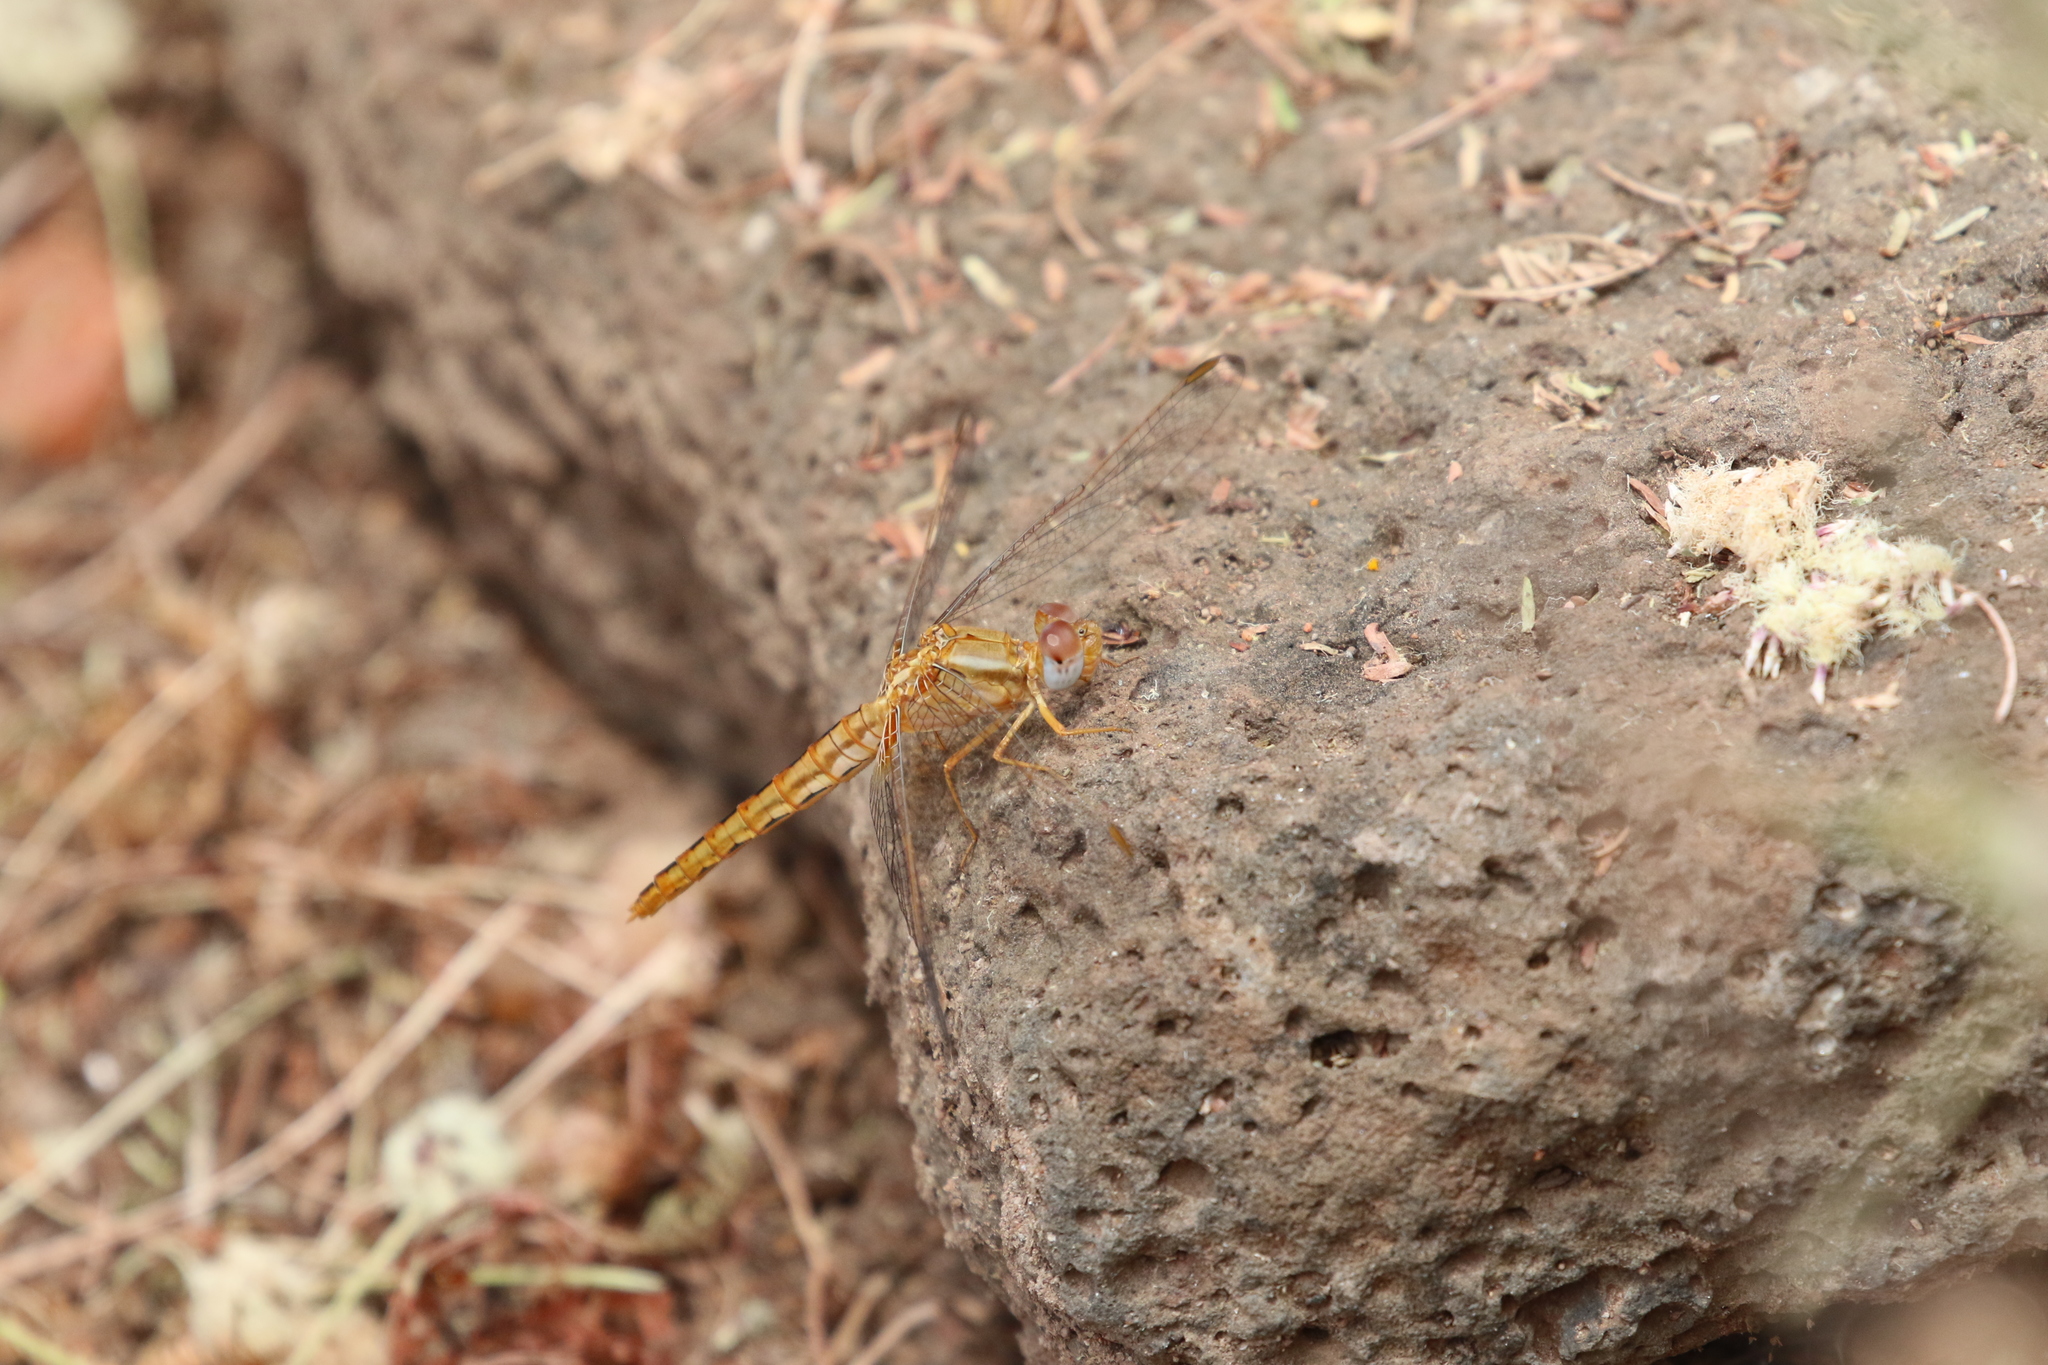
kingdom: Animalia
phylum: Arthropoda
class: Insecta
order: Odonata
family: Libellulidae
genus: Crocothemis
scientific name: Crocothemis sanguinolenta
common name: Little scarlet
